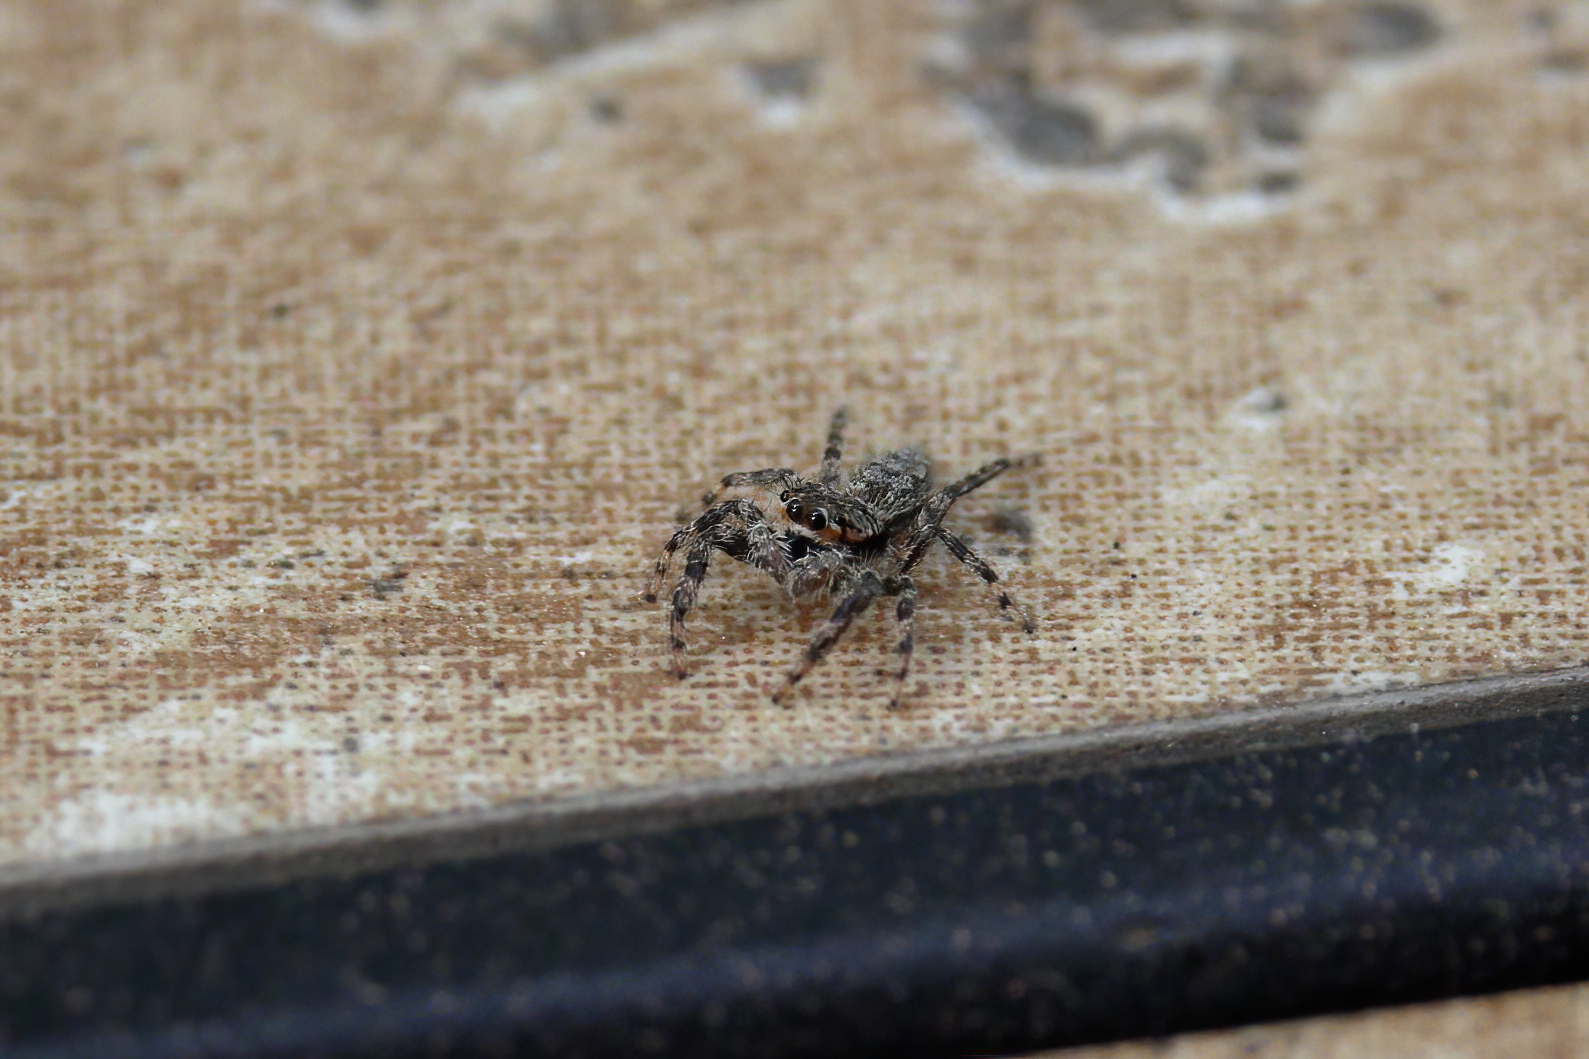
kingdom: Animalia
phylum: Arthropoda
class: Arachnida
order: Araneae
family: Salticidae
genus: Platycryptus
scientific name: Platycryptus undatus
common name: Tan jumping spider
